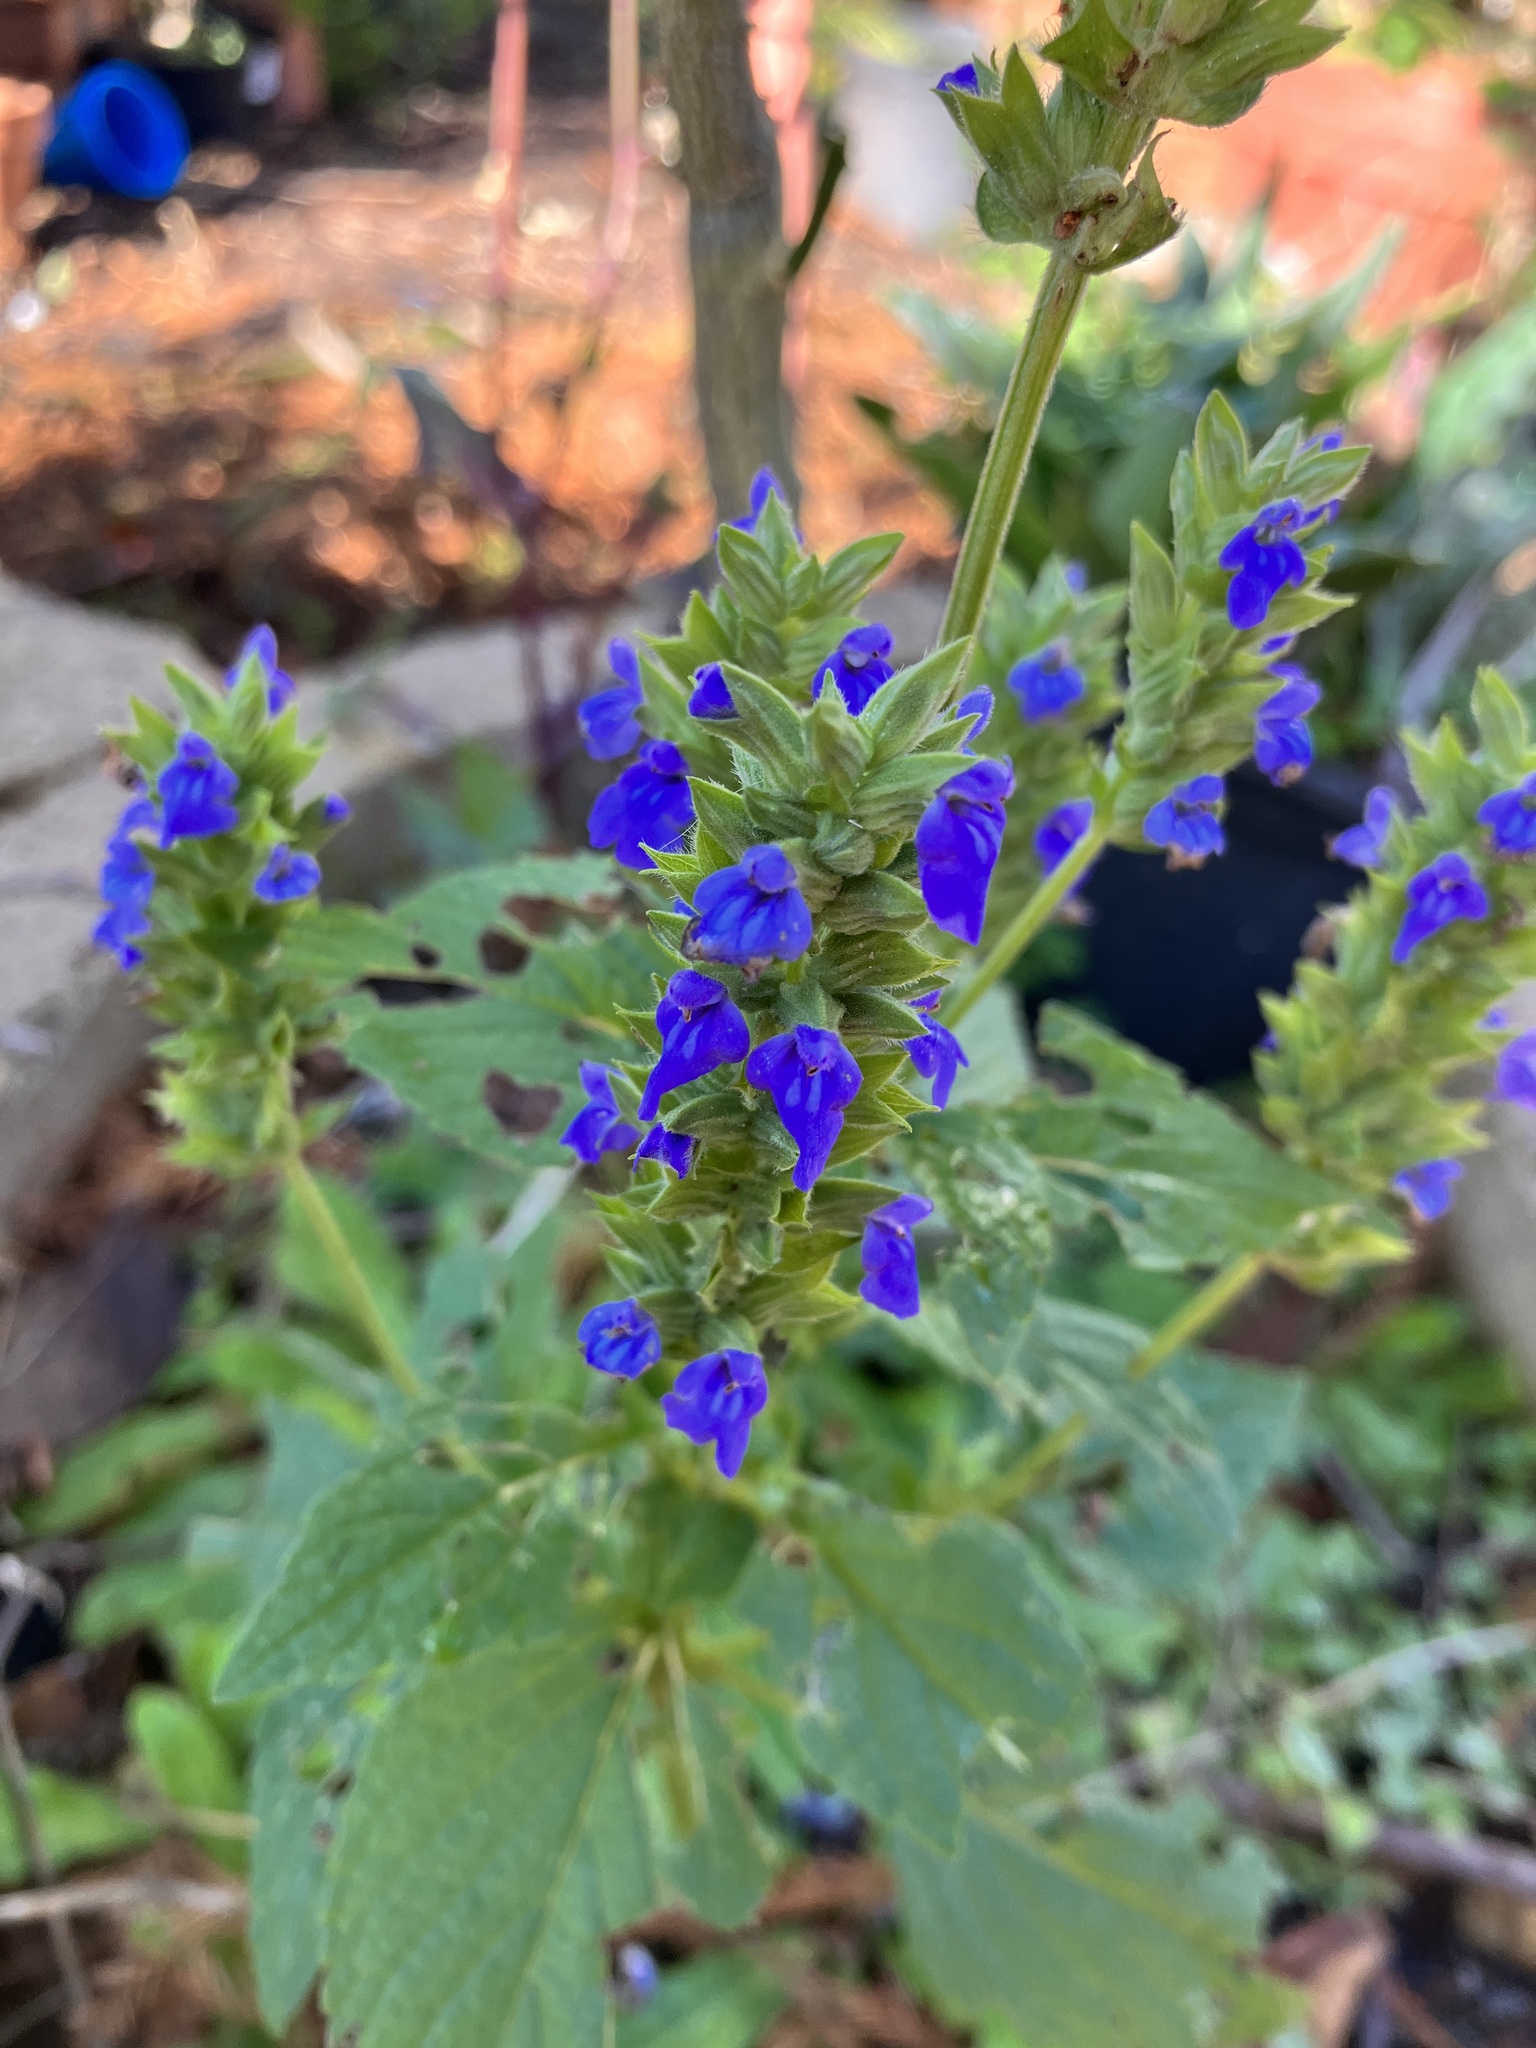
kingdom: Plantae
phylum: Tracheophyta
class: Magnoliopsida
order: Lamiales
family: Lamiaceae
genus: Salvia
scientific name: Salvia hispanica
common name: Chia
